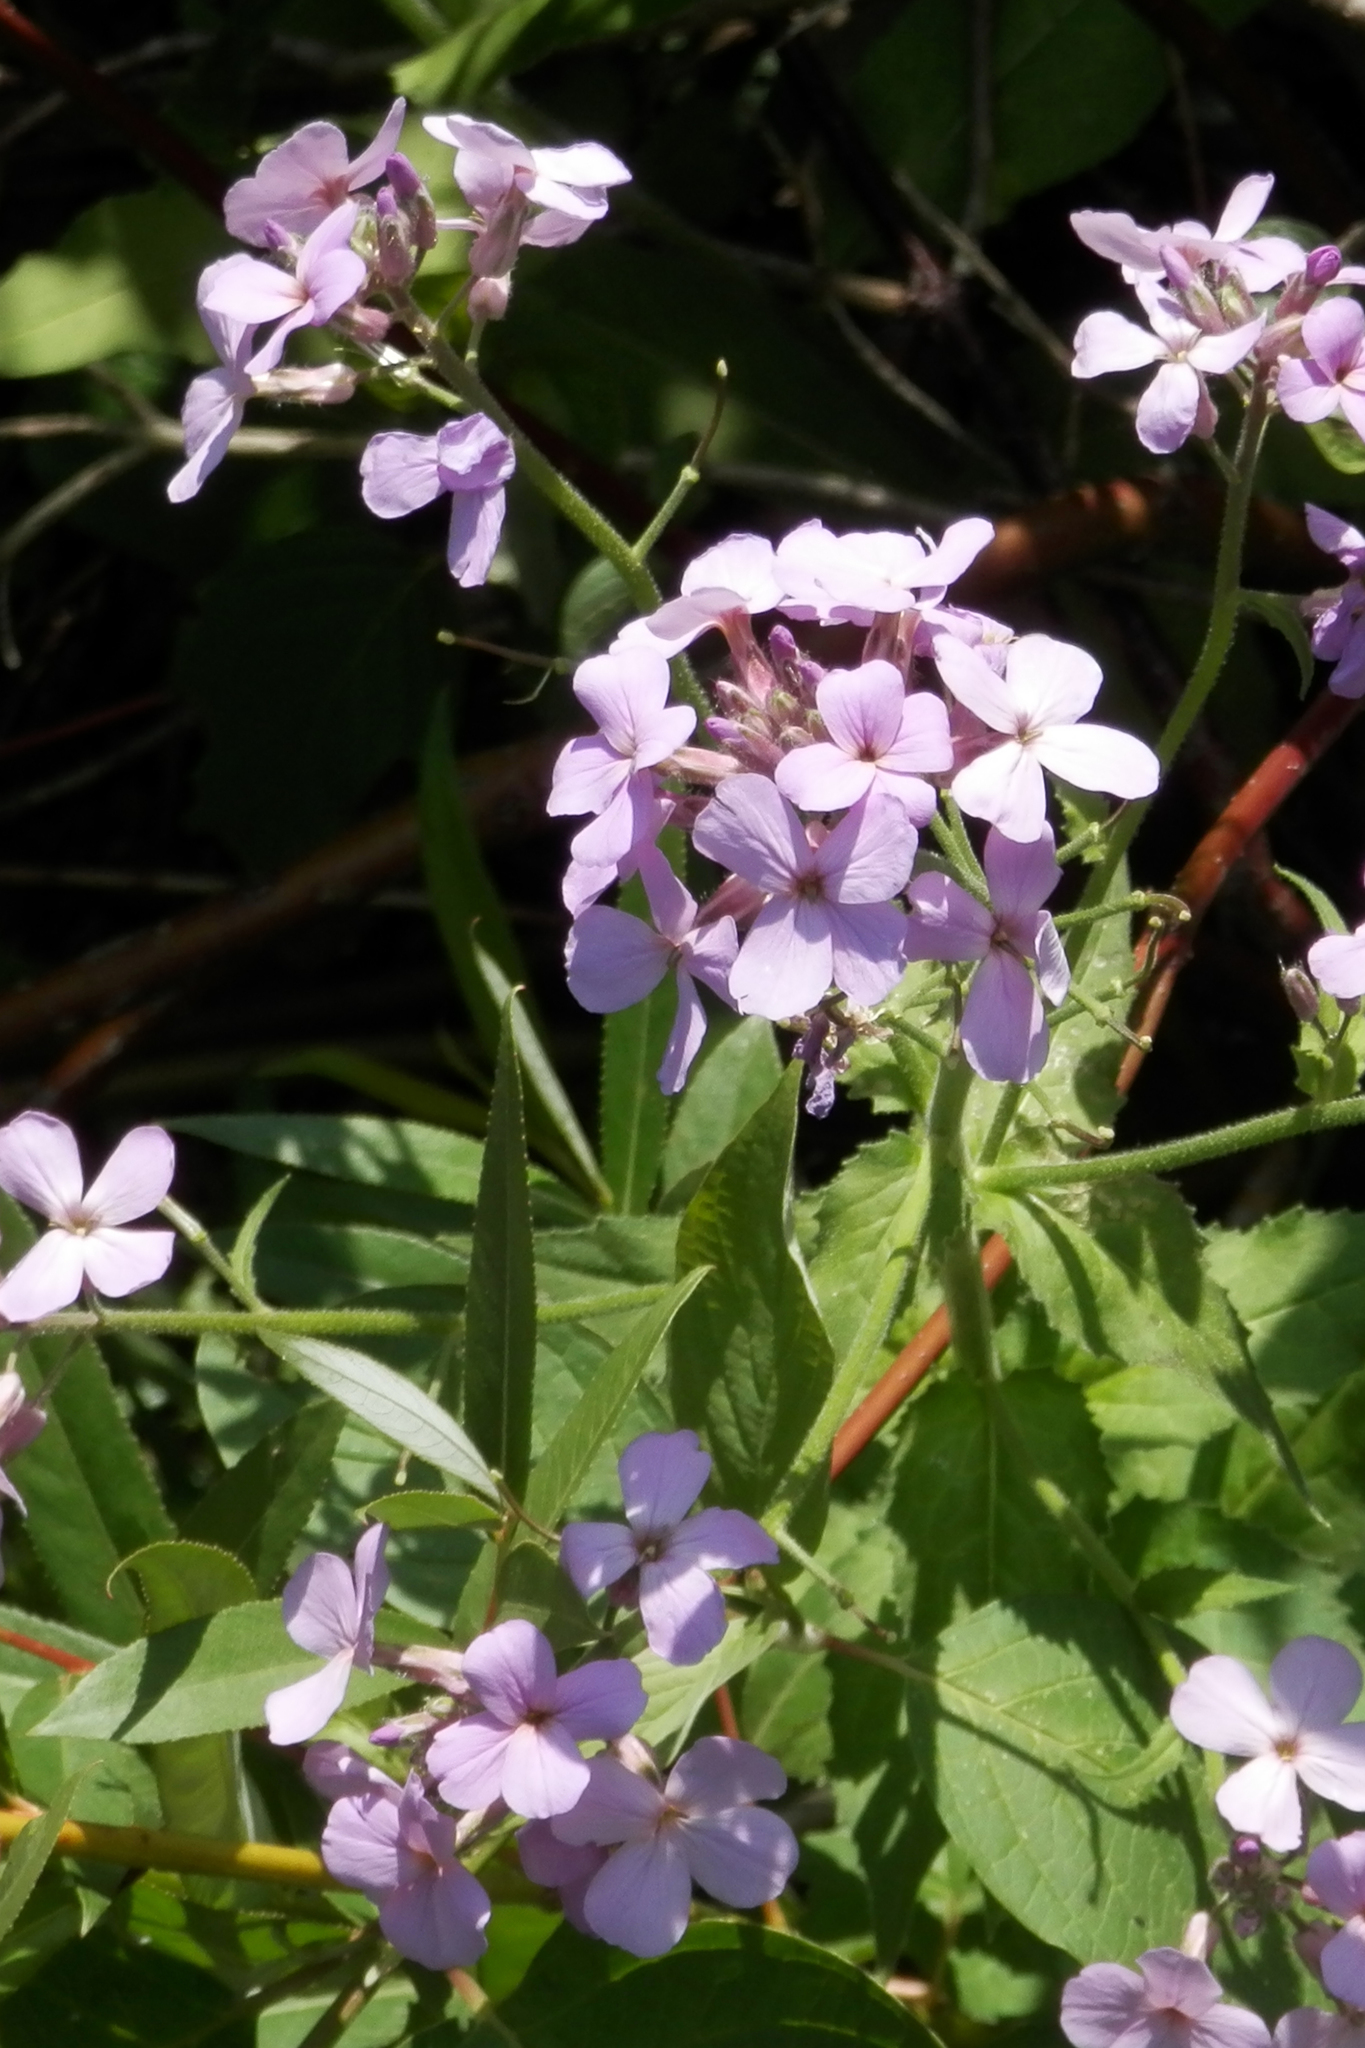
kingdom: Plantae
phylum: Tracheophyta
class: Magnoliopsida
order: Brassicales
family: Brassicaceae
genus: Hesperis
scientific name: Hesperis matronalis
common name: Dame's-violet
